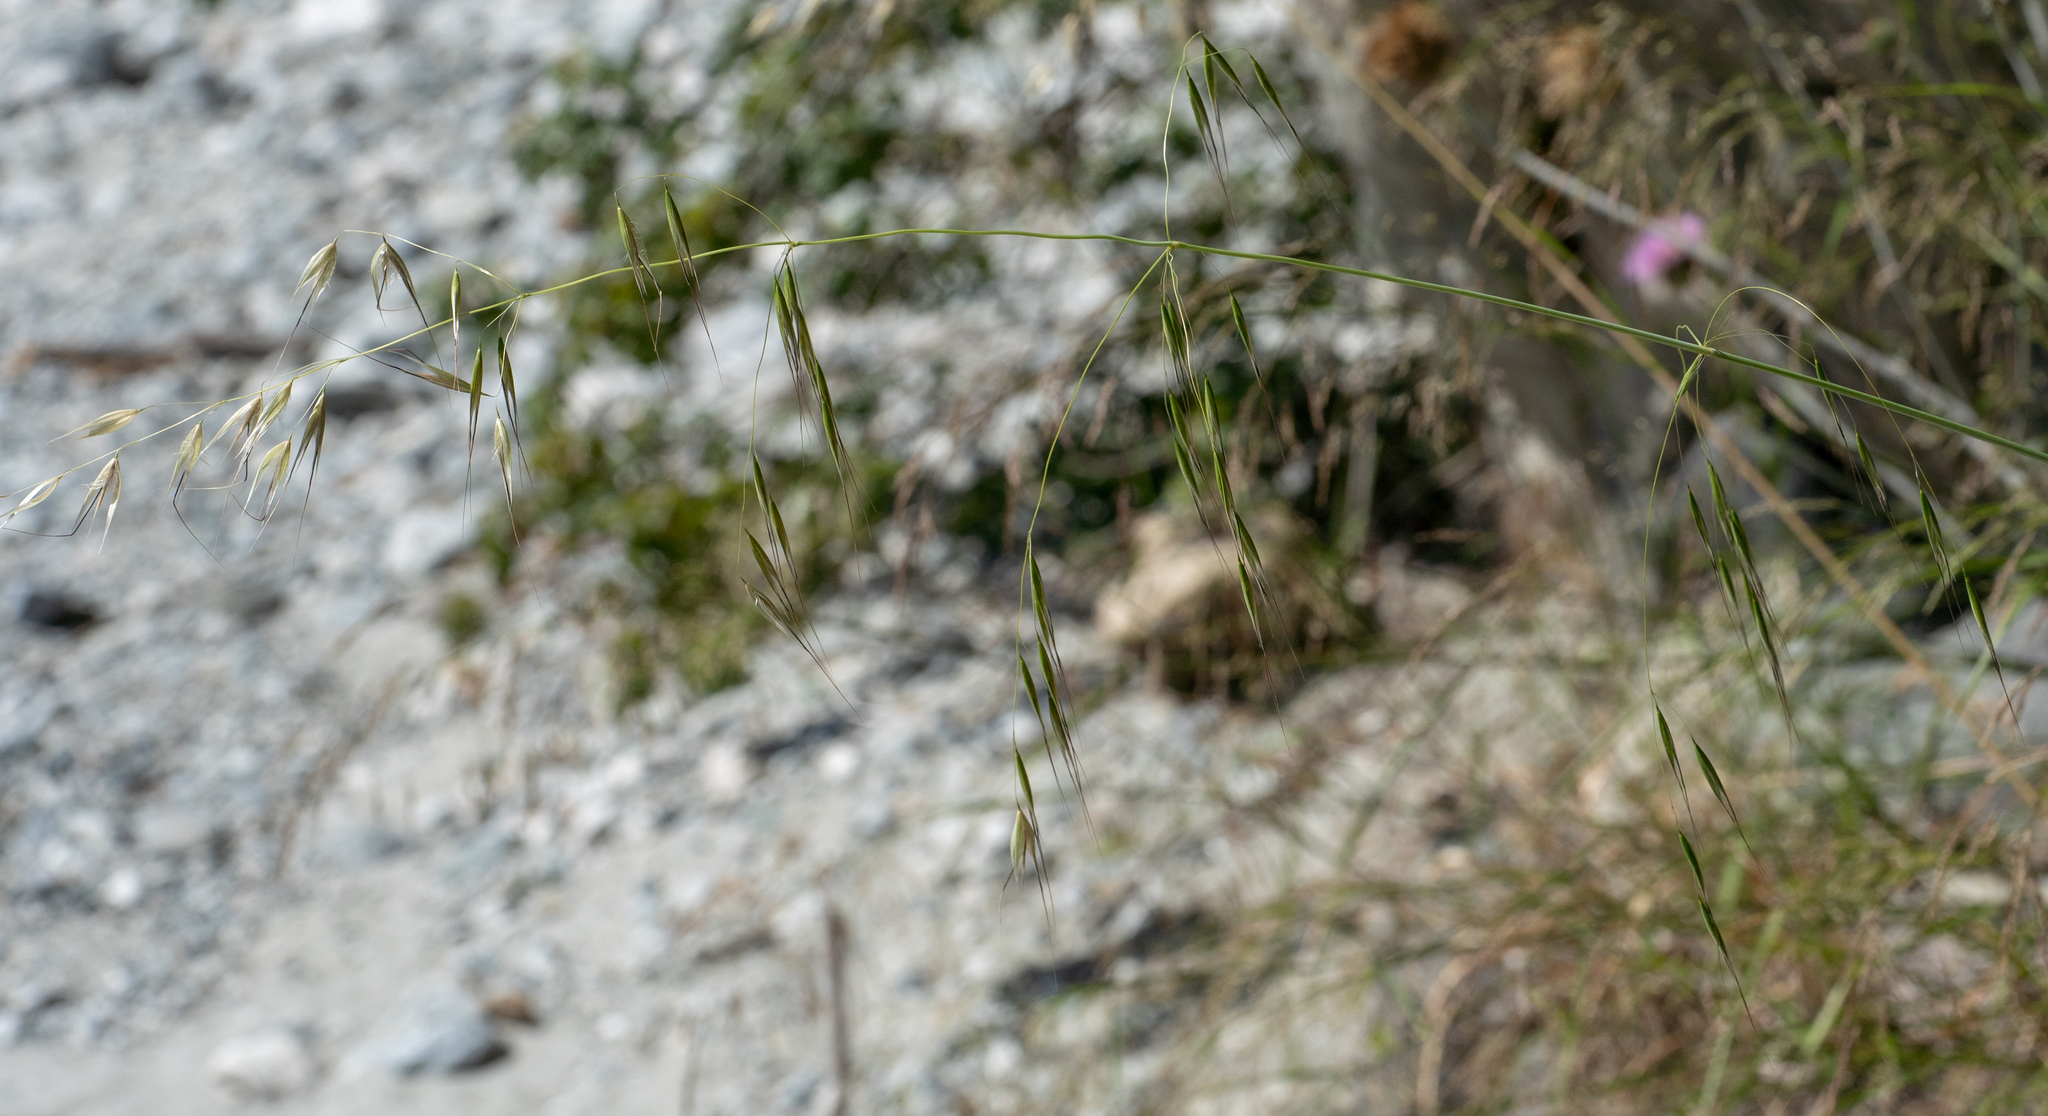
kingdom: Plantae
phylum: Tracheophyta
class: Liliopsida
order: Poales
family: Poaceae
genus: Avena
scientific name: Avena barbata
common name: Slender oat
